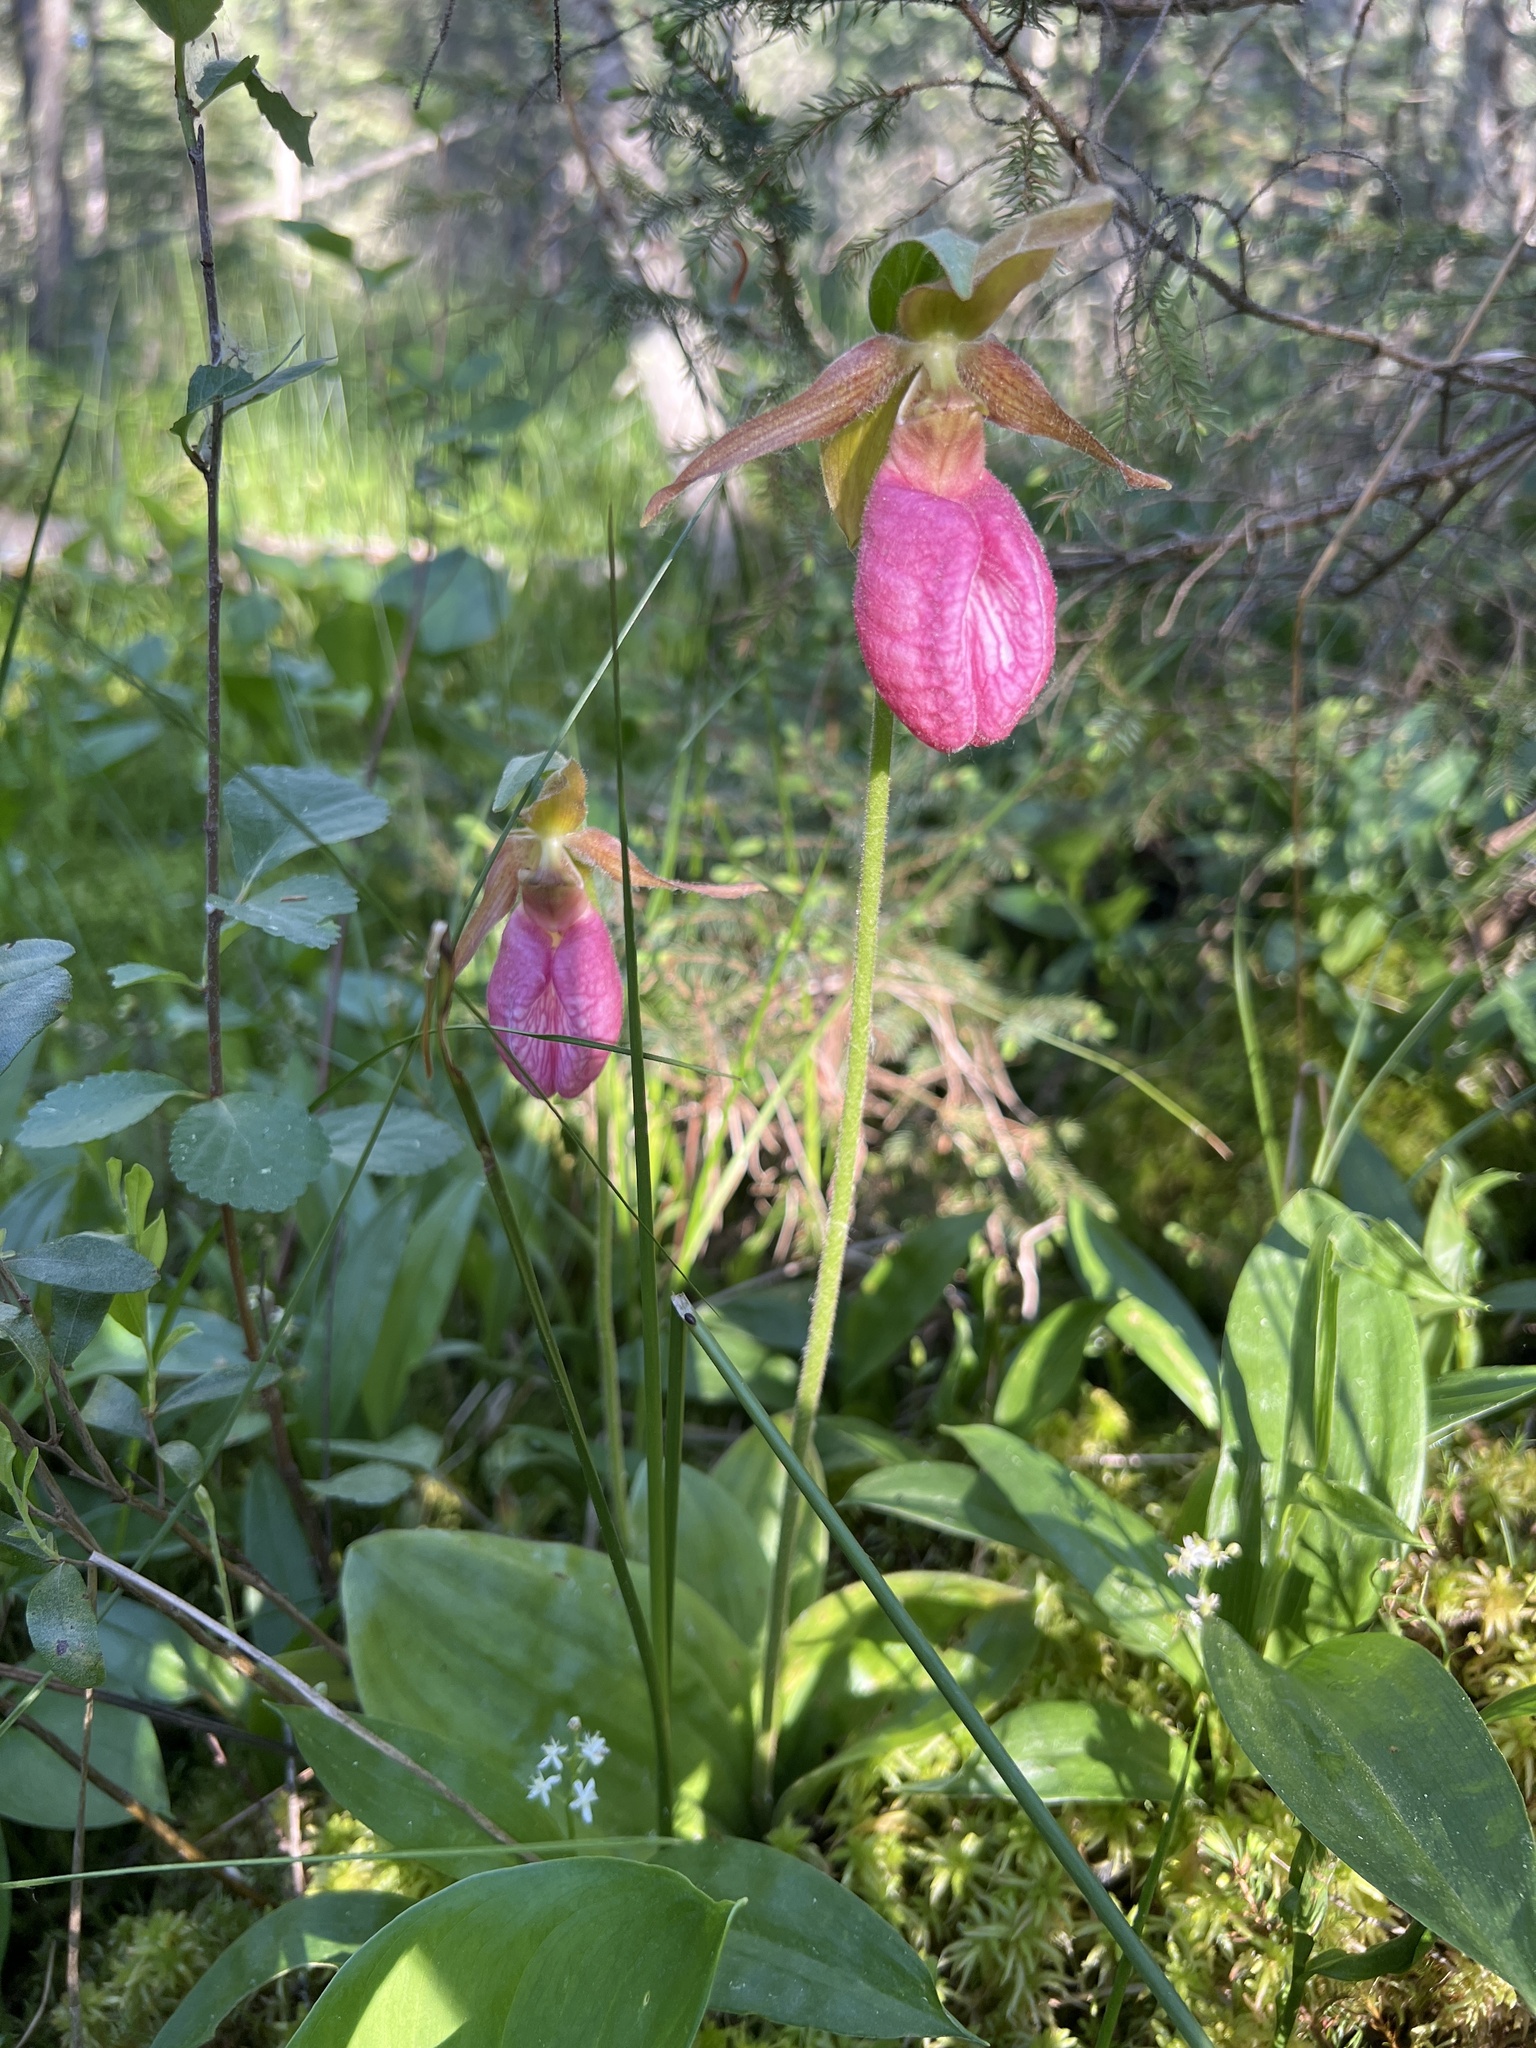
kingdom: Plantae
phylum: Tracheophyta
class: Liliopsida
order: Asparagales
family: Orchidaceae
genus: Cypripedium
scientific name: Cypripedium acaule
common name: Pink lady's-slipper
